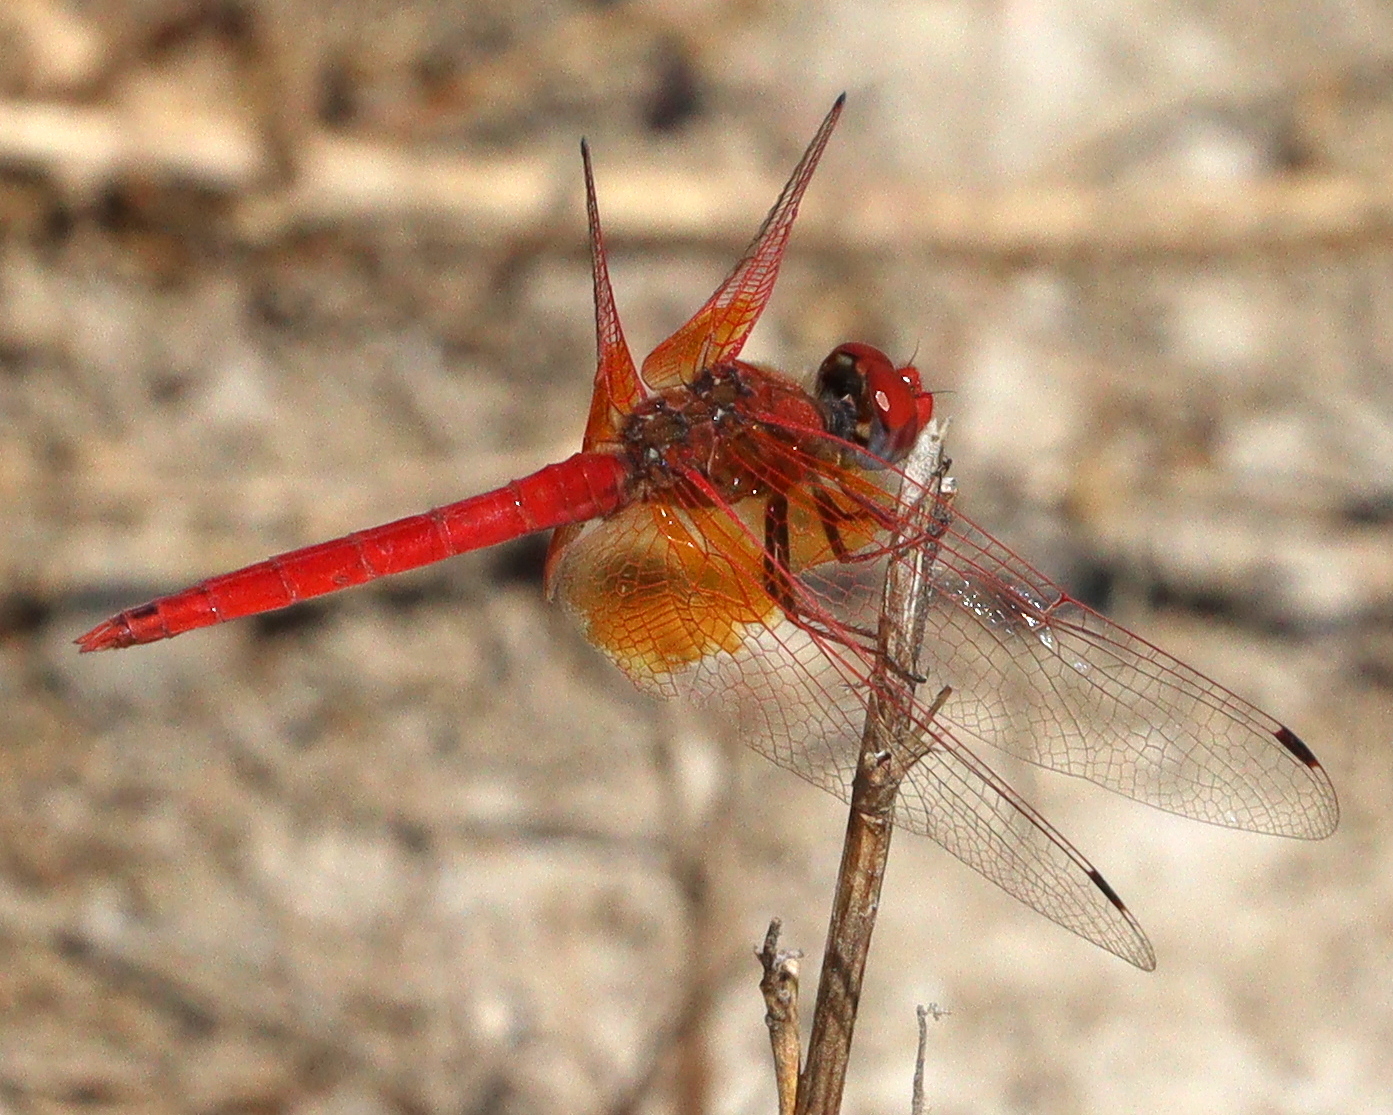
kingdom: Animalia
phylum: Arthropoda
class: Insecta
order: Odonata
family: Libellulidae
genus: Trithemis
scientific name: Trithemis kirbyi
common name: Kirby's dropwing
